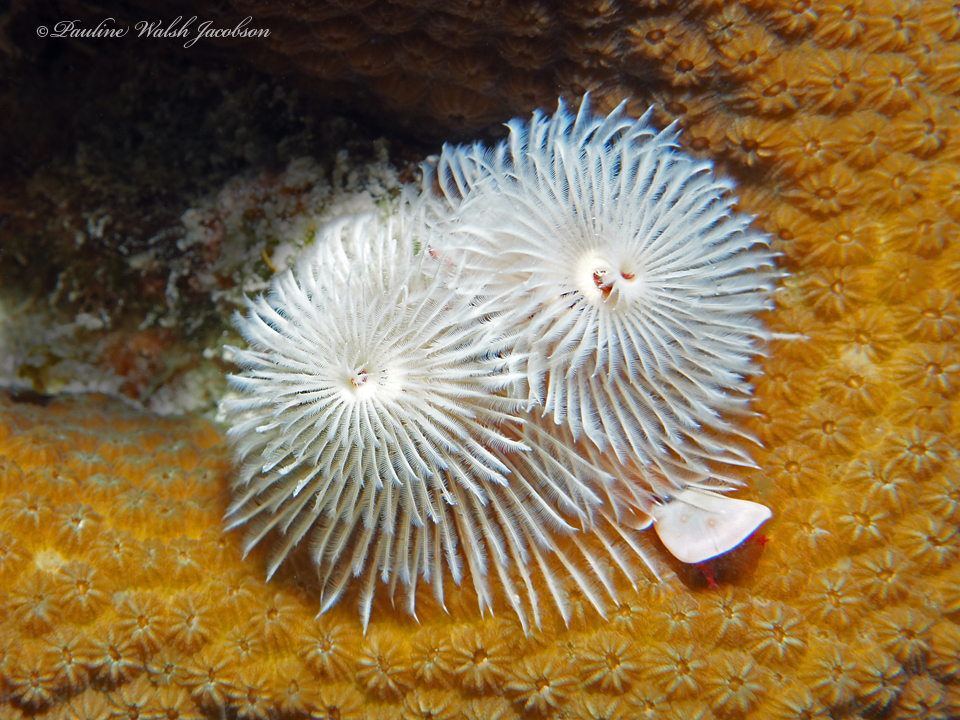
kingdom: Animalia
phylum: Annelida
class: Polychaeta
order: Sabellida
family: Serpulidae
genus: Spirobranchus
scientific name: Spirobranchus giganteus
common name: Christmas tree worm
